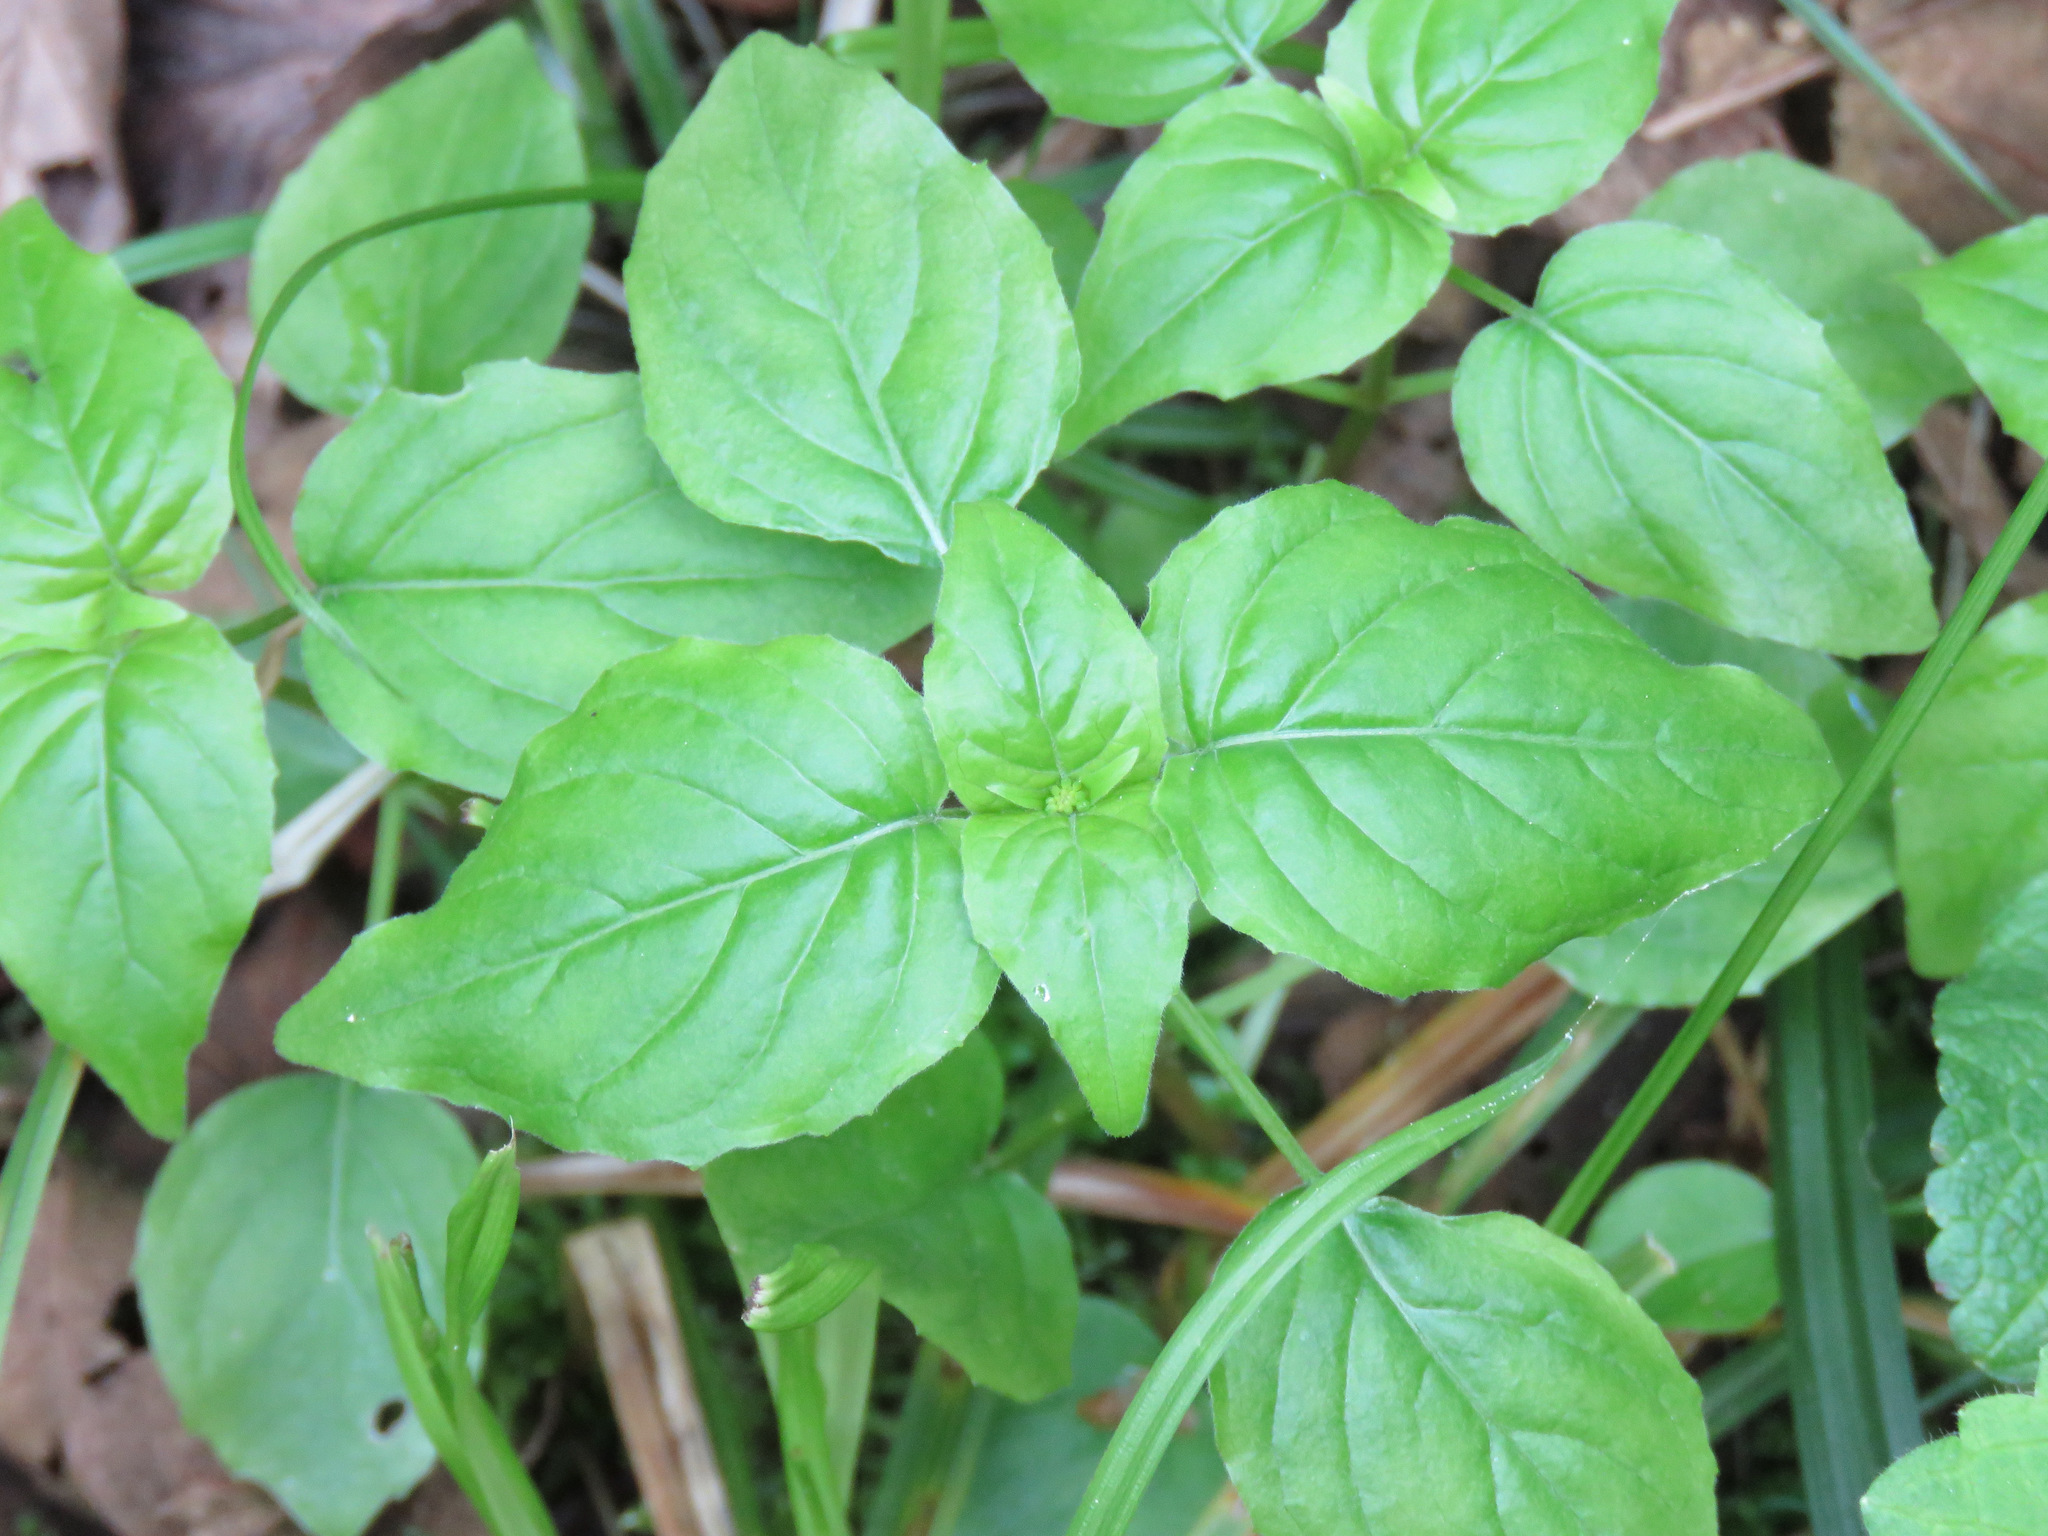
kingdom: Plantae
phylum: Tracheophyta
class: Magnoliopsida
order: Myrtales
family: Onagraceae
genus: Circaea
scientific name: Circaea alpina
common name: Alpine enchanter's-nightshade
